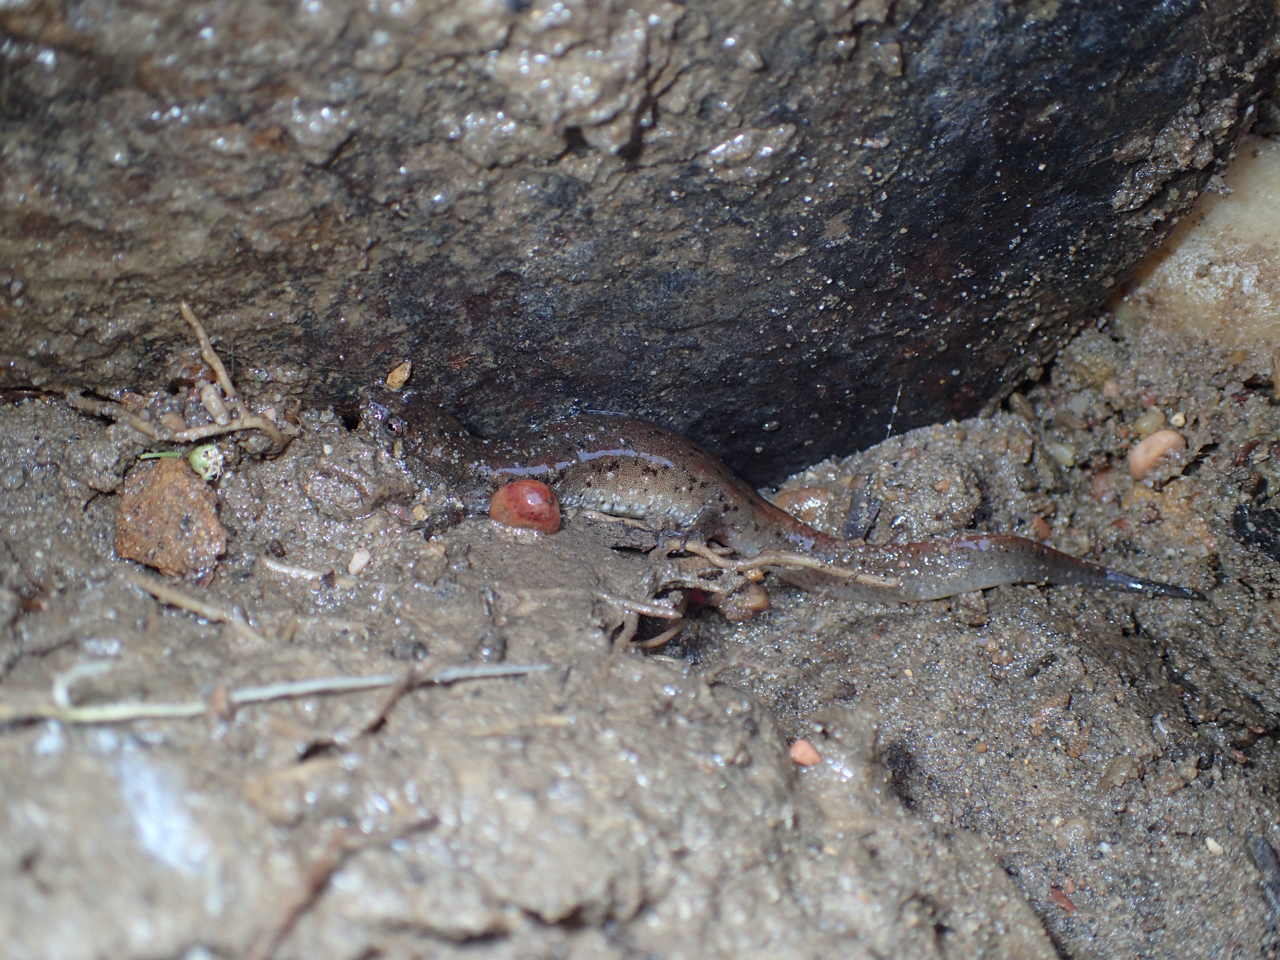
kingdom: Animalia
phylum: Chordata
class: Amphibia
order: Caudata
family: Plethodontidae
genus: Desmognathus
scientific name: Desmognathus conanti
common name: Spotted dusky salamander
